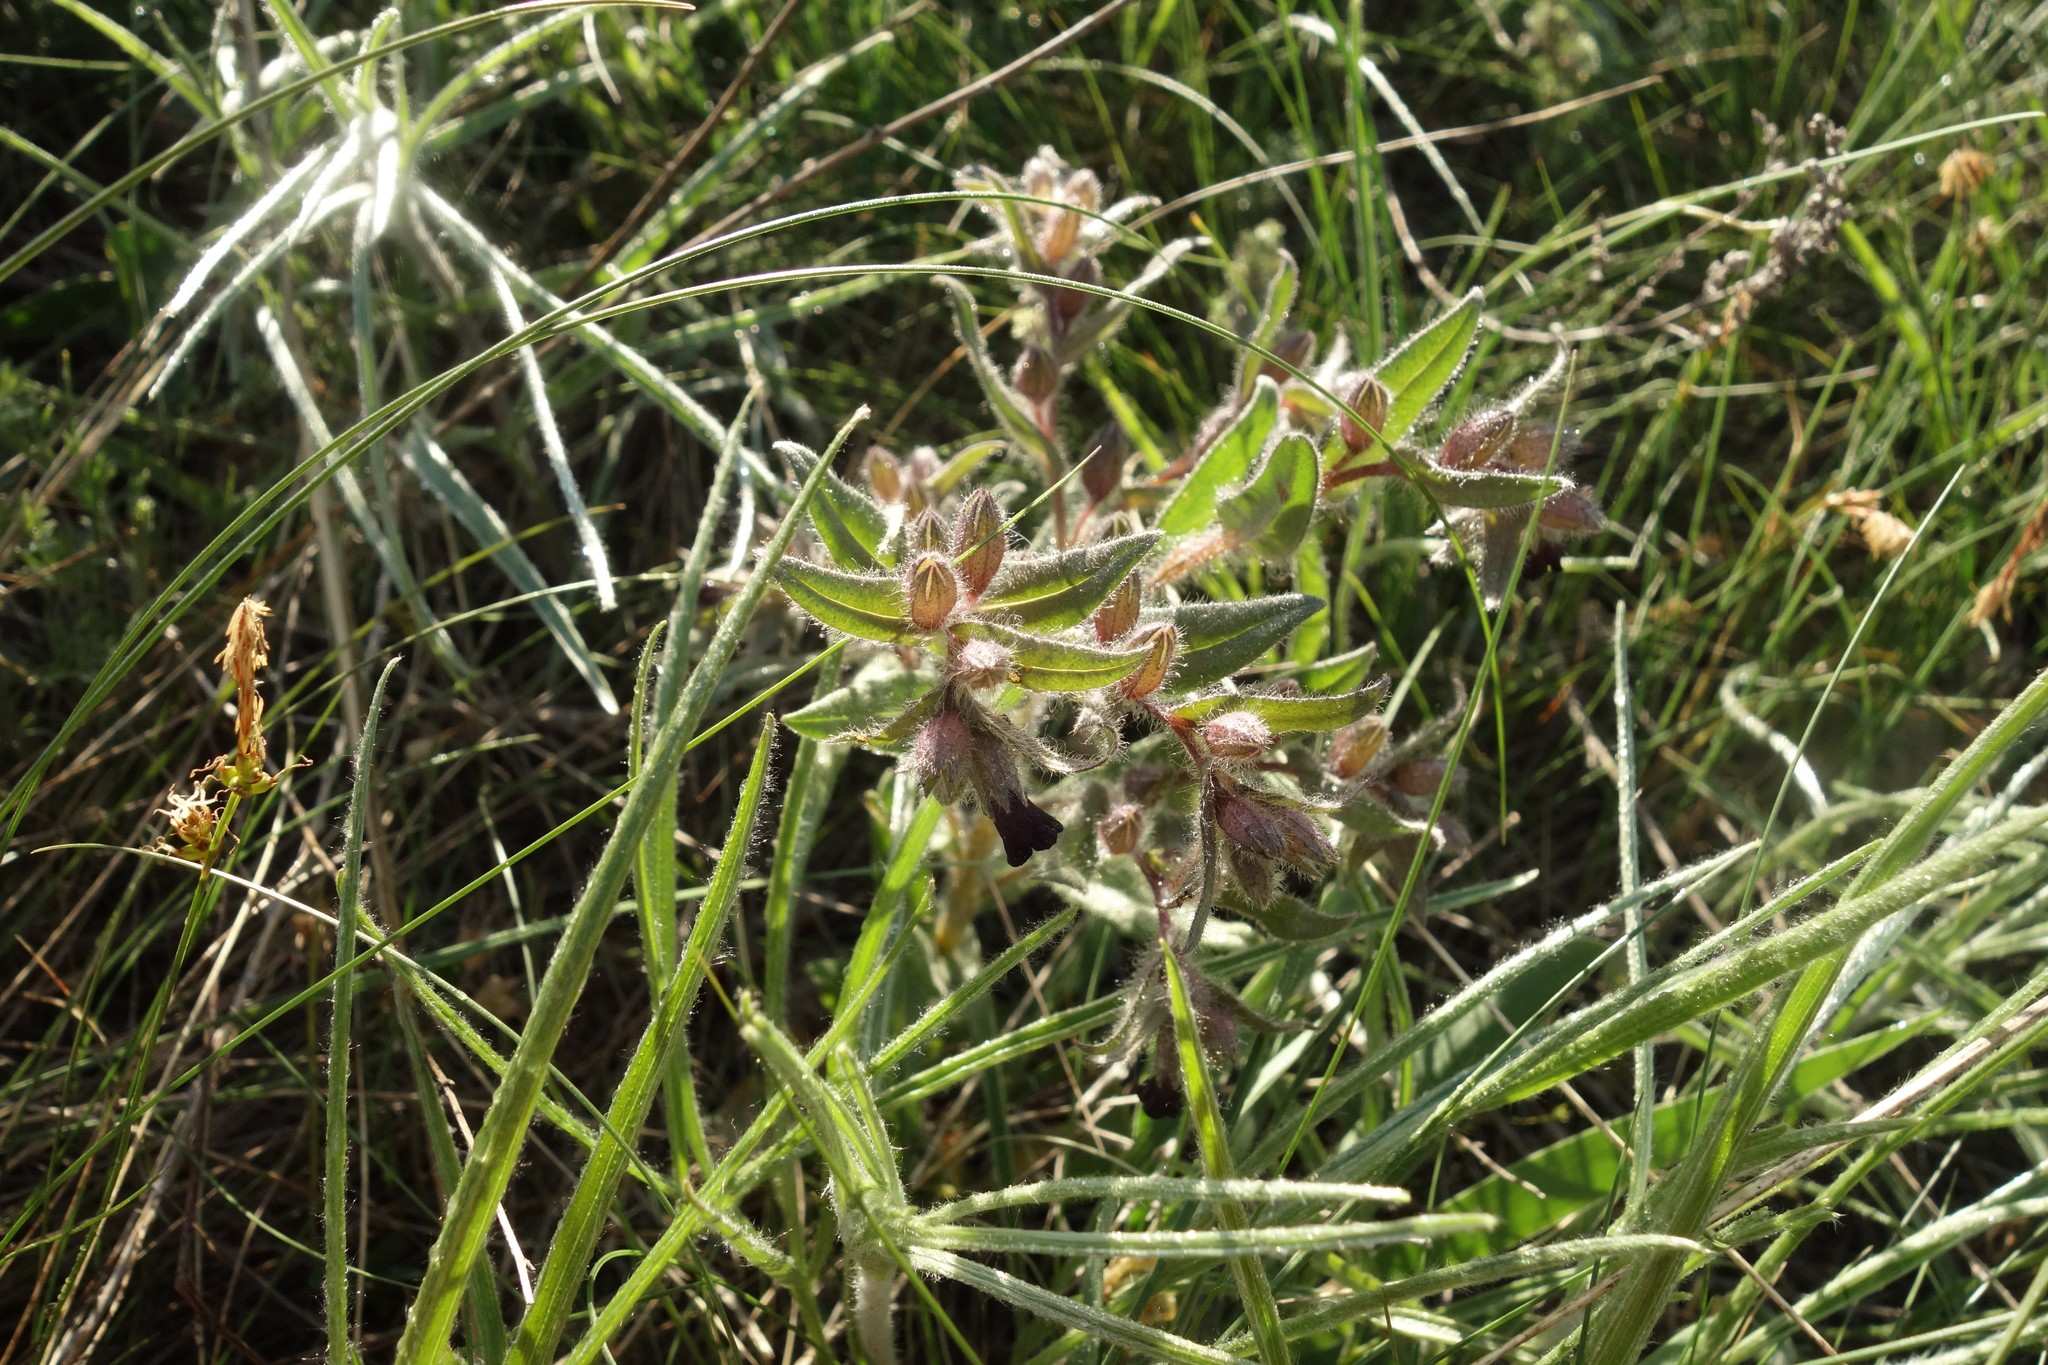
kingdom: Plantae
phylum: Tracheophyta
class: Magnoliopsida
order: Boraginales
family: Boraginaceae
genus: Nonea
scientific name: Nonea pulla
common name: Brown nonea
